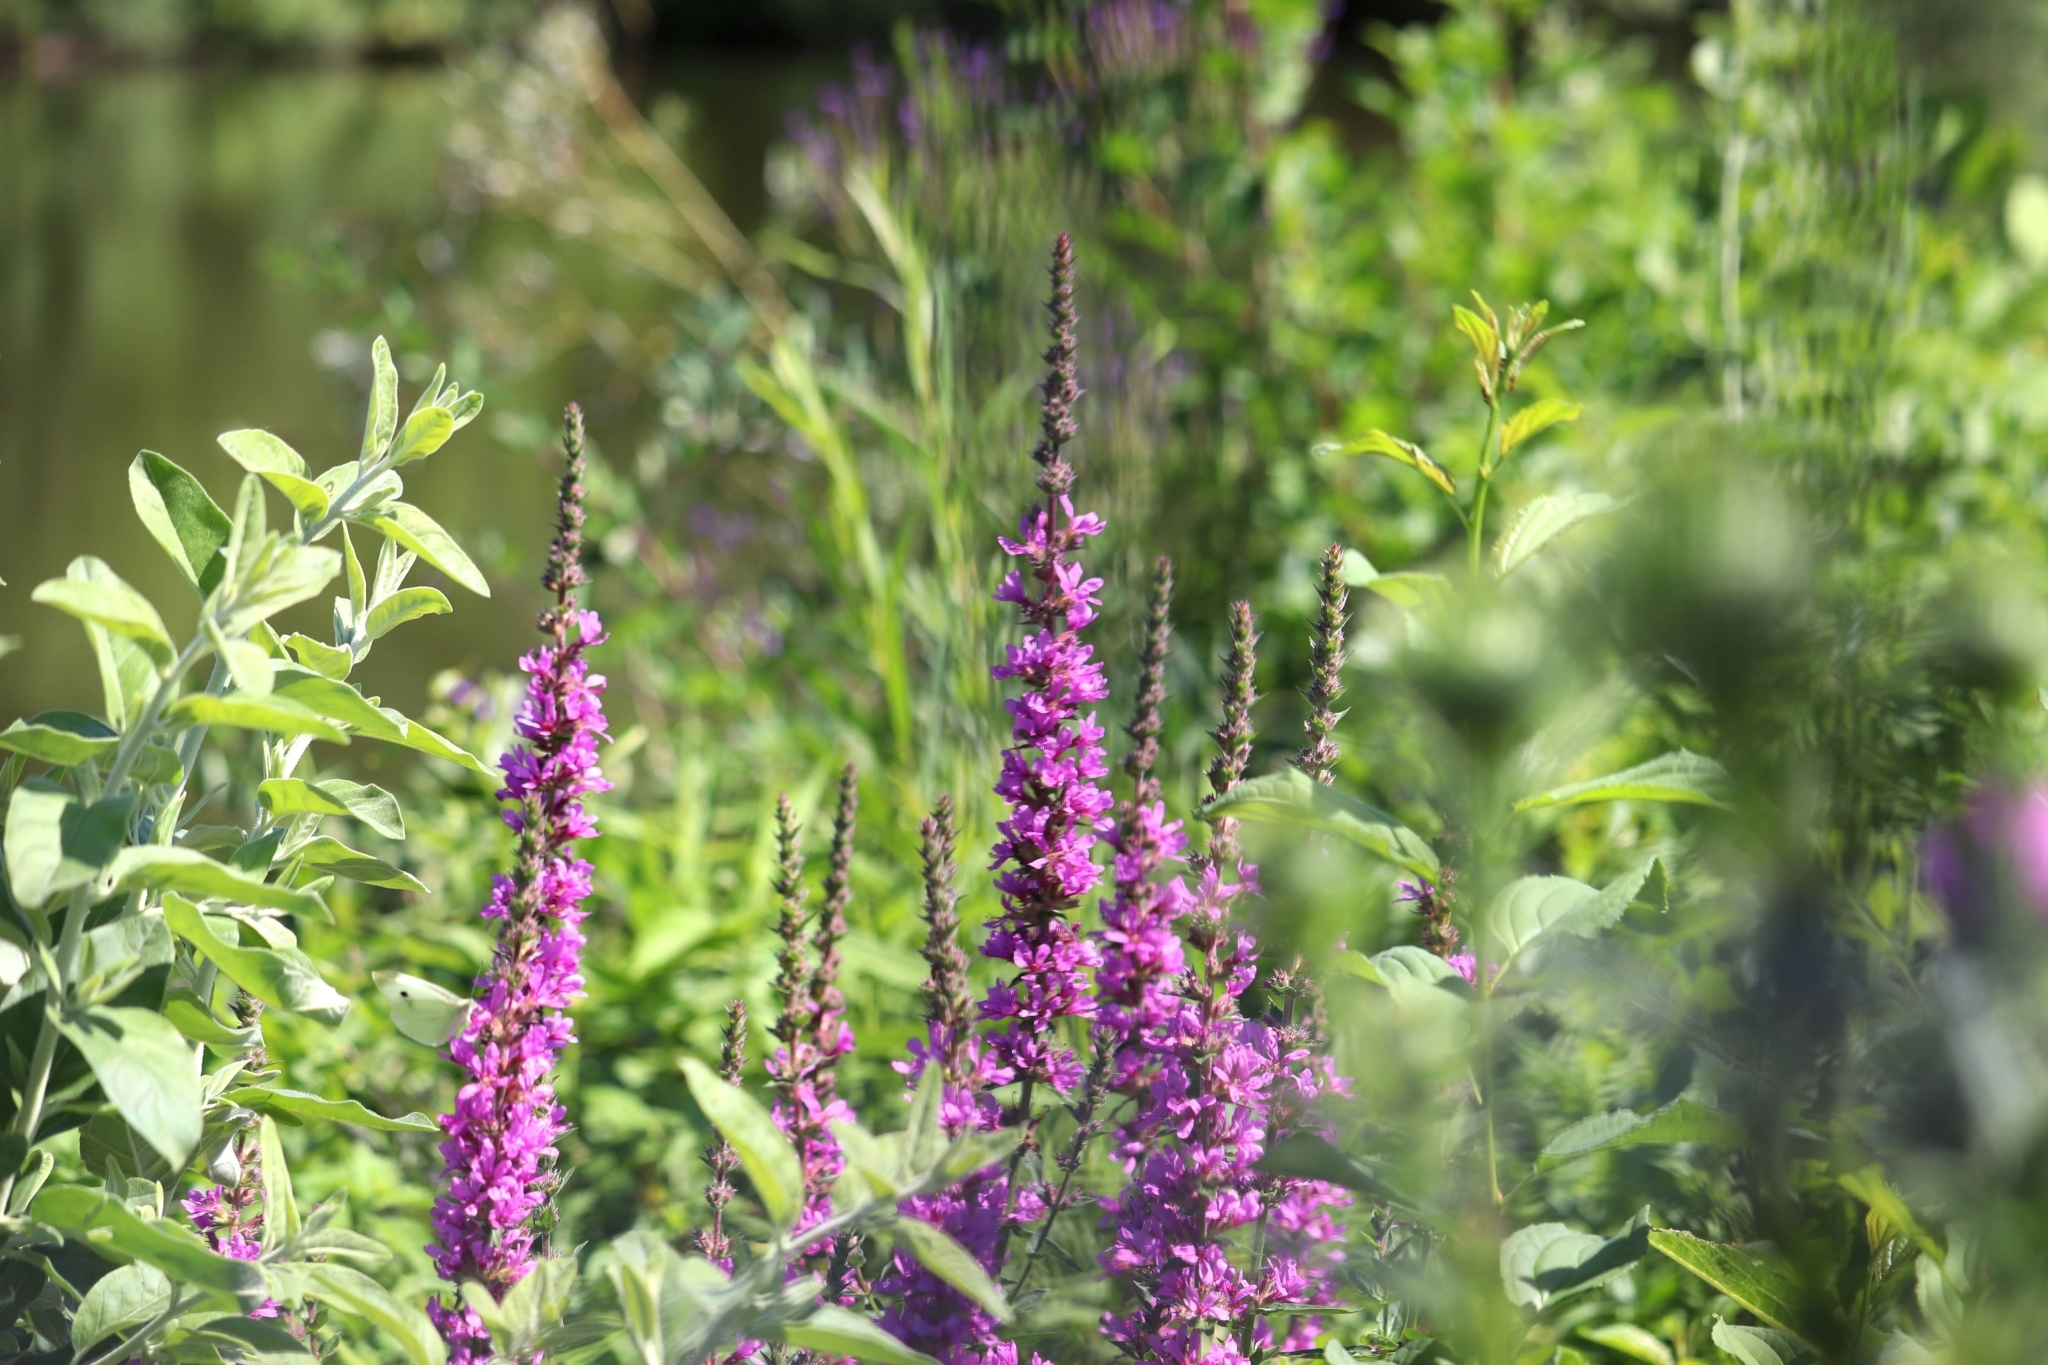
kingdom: Plantae
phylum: Tracheophyta
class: Magnoliopsida
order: Myrtales
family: Lythraceae
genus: Lythrum
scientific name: Lythrum salicaria
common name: Purple loosestrife
